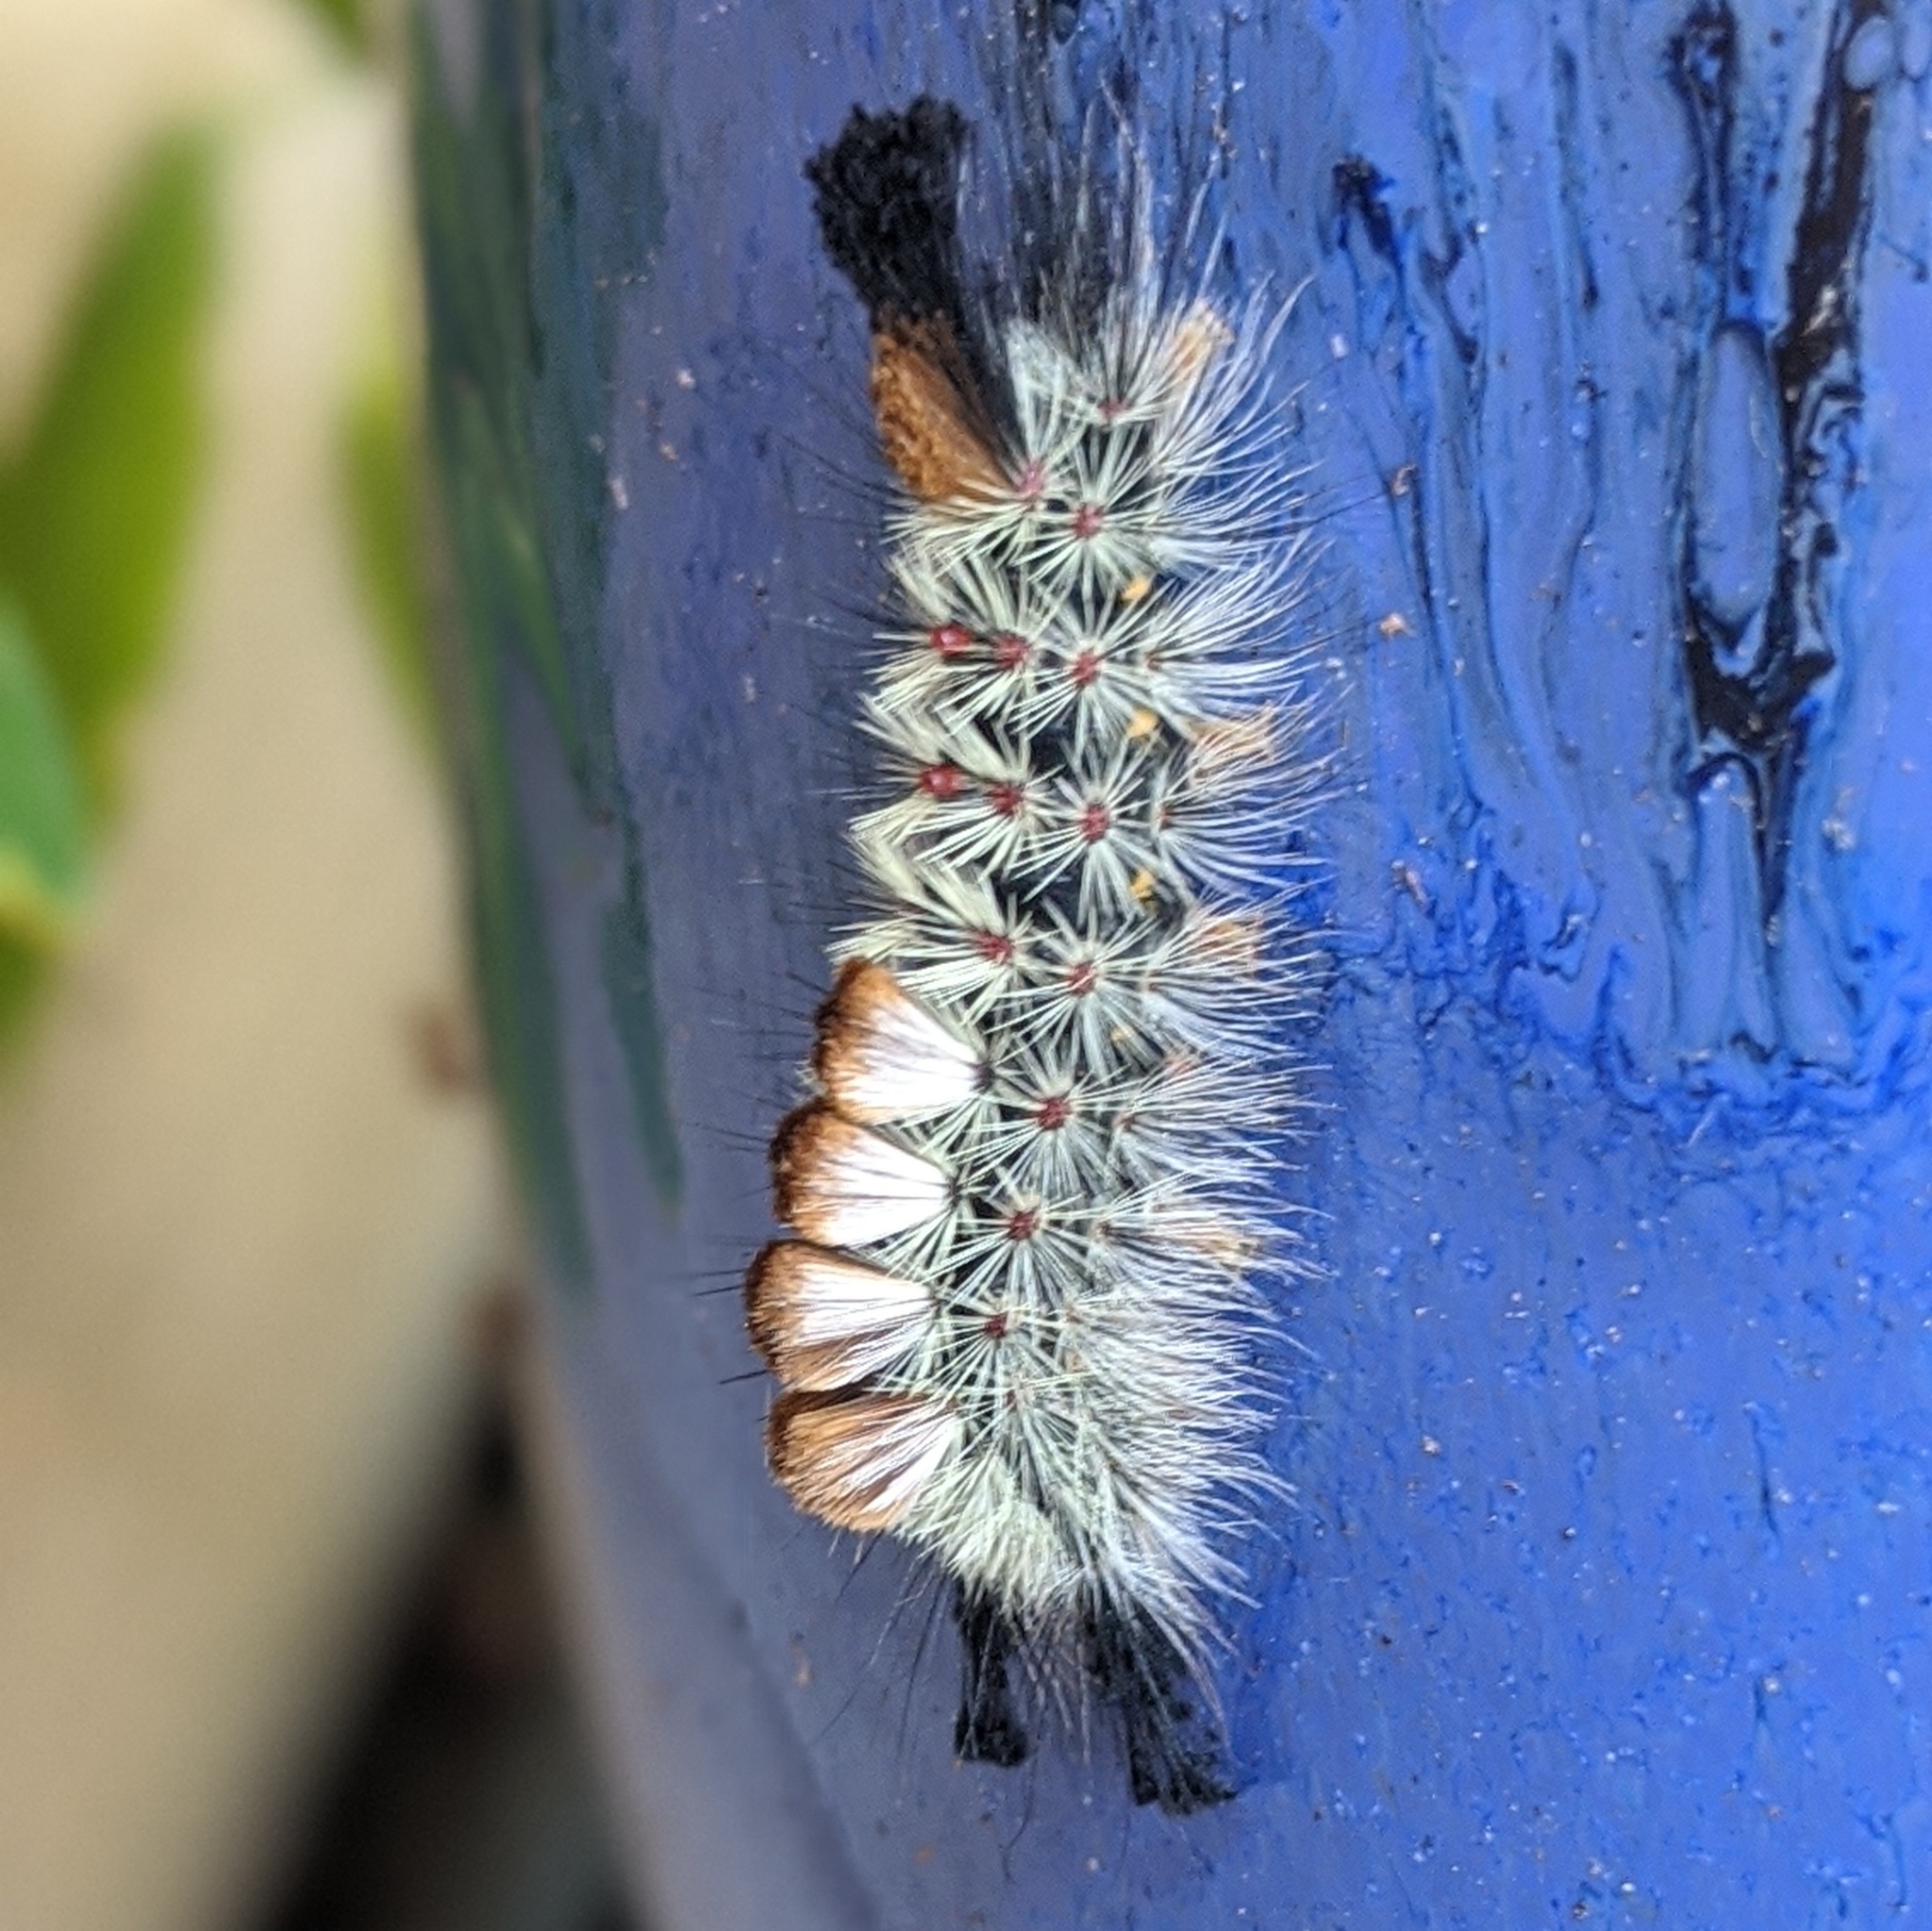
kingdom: Animalia
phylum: Arthropoda
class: Insecta
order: Lepidoptera
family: Erebidae
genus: Orgyia
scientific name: Orgyia pseudotsugata
